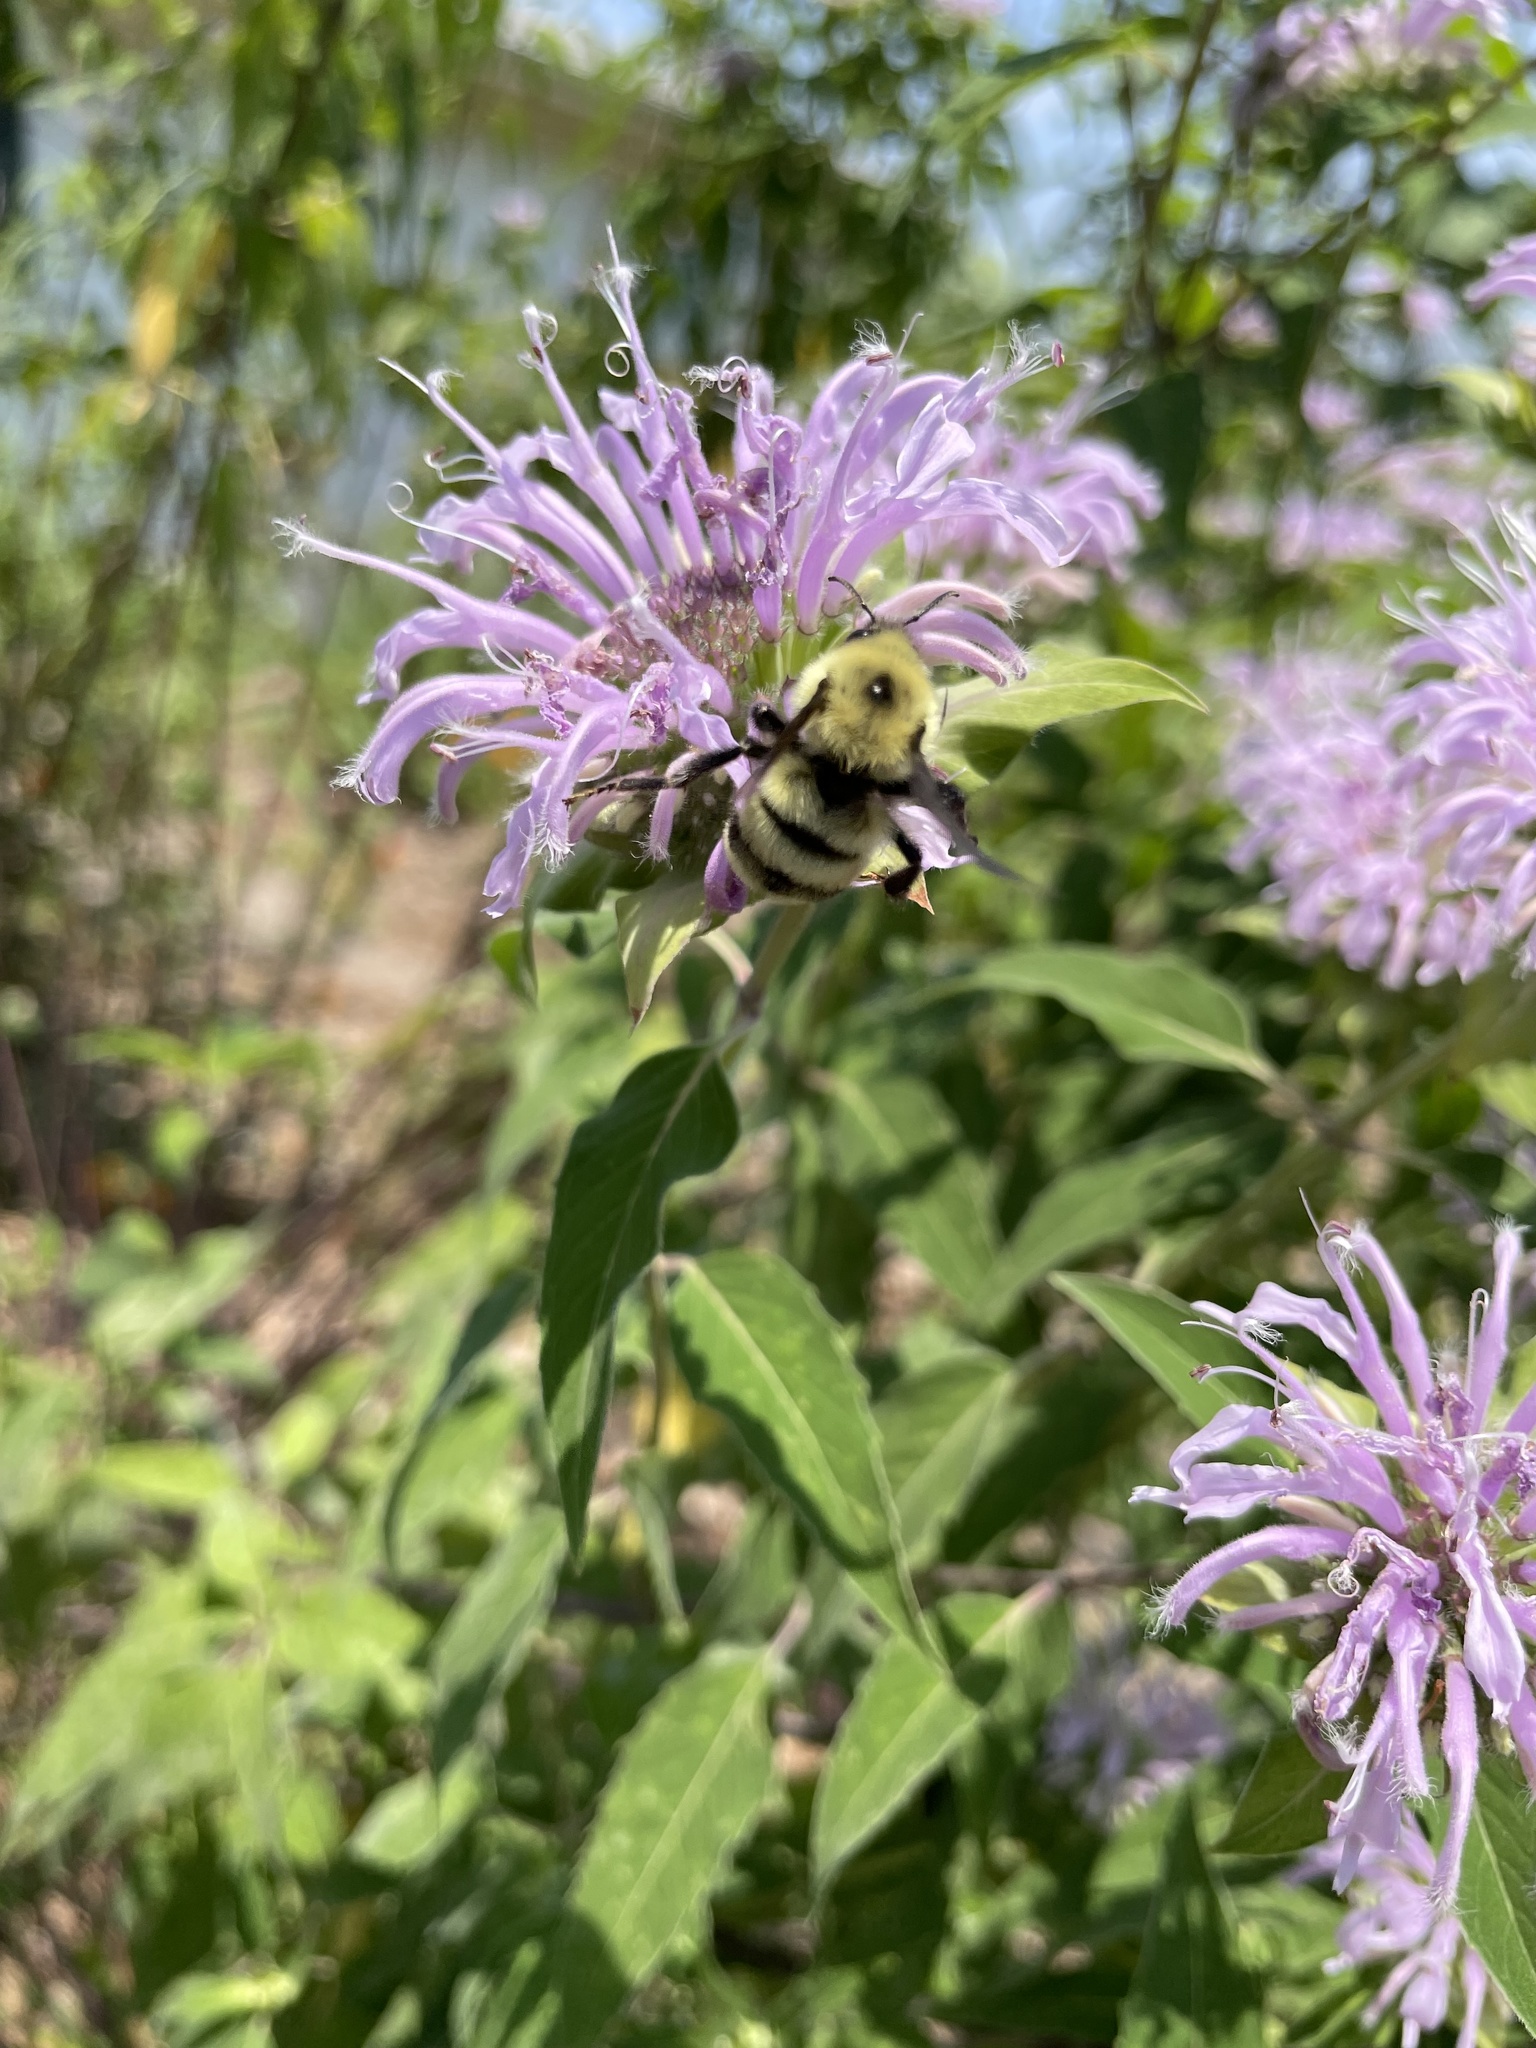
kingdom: Animalia
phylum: Arthropoda
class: Insecta
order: Hymenoptera
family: Apidae
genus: Bombus
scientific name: Bombus bimaculatus
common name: Two-spotted bumble bee
